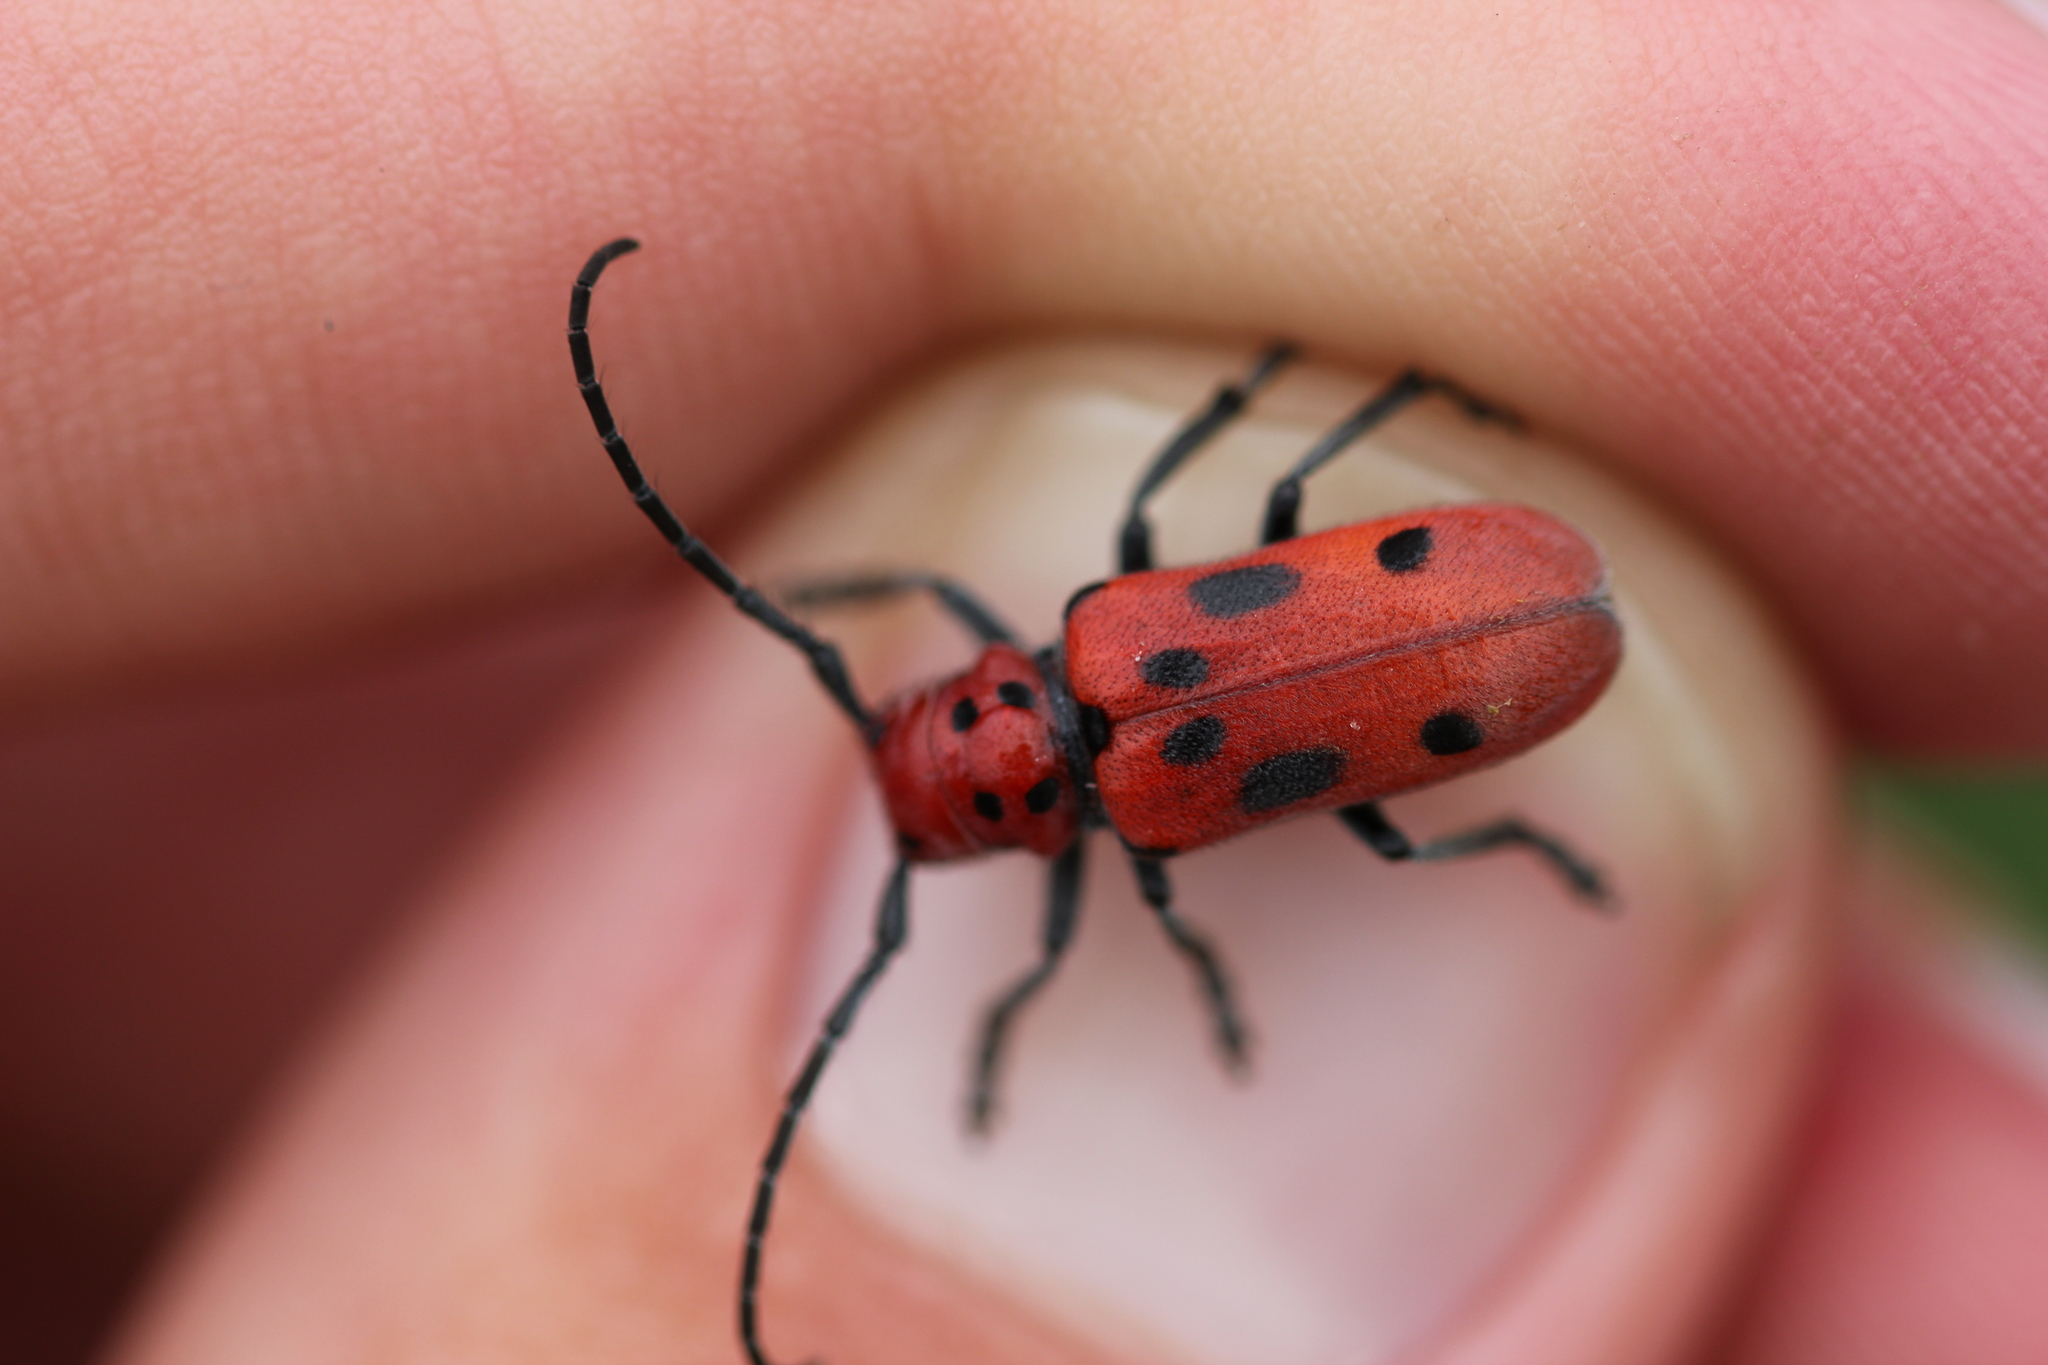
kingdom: Animalia
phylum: Arthropoda
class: Insecta
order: Coleoptera
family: Cerambycidae
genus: Tetraopes
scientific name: Tetraopes tetrophthalmus
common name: Red milkweed beetle
